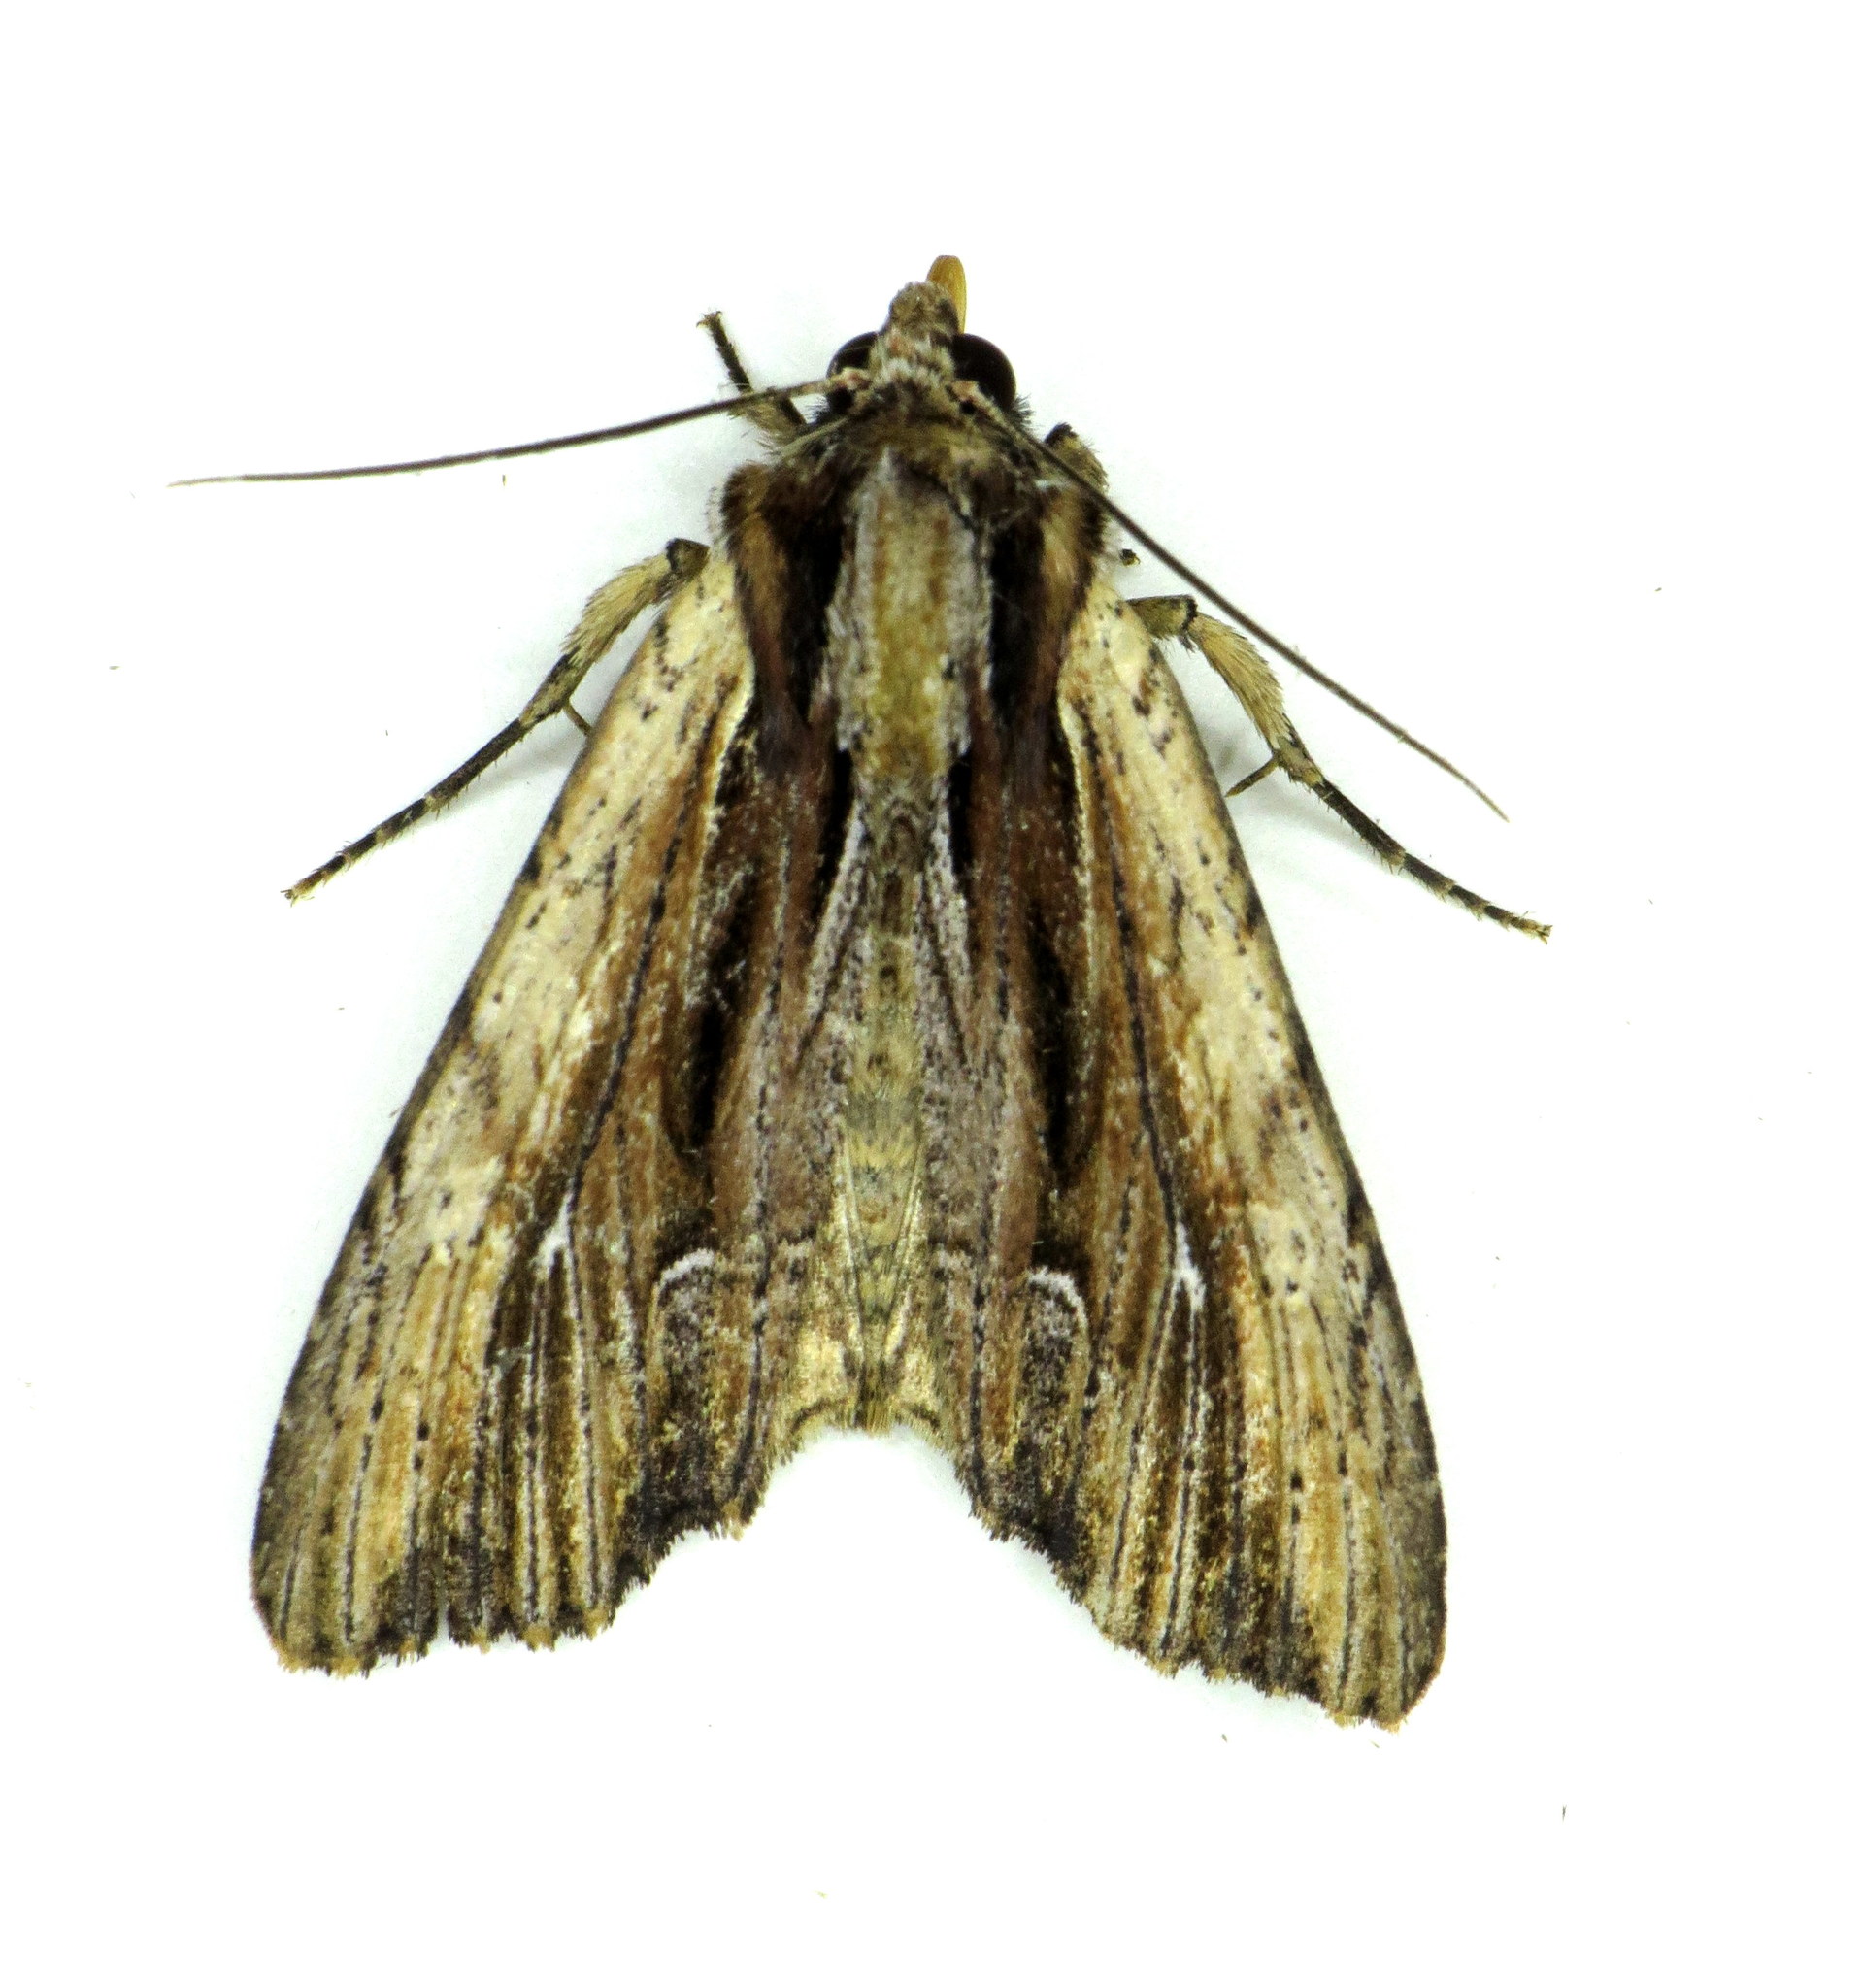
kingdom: Animalia
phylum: Arthropoda
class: Insecta
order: Lepidoptera
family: Noctuidae
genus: Apamea
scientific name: Apamea verbascoides
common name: Mullein apamea moth
